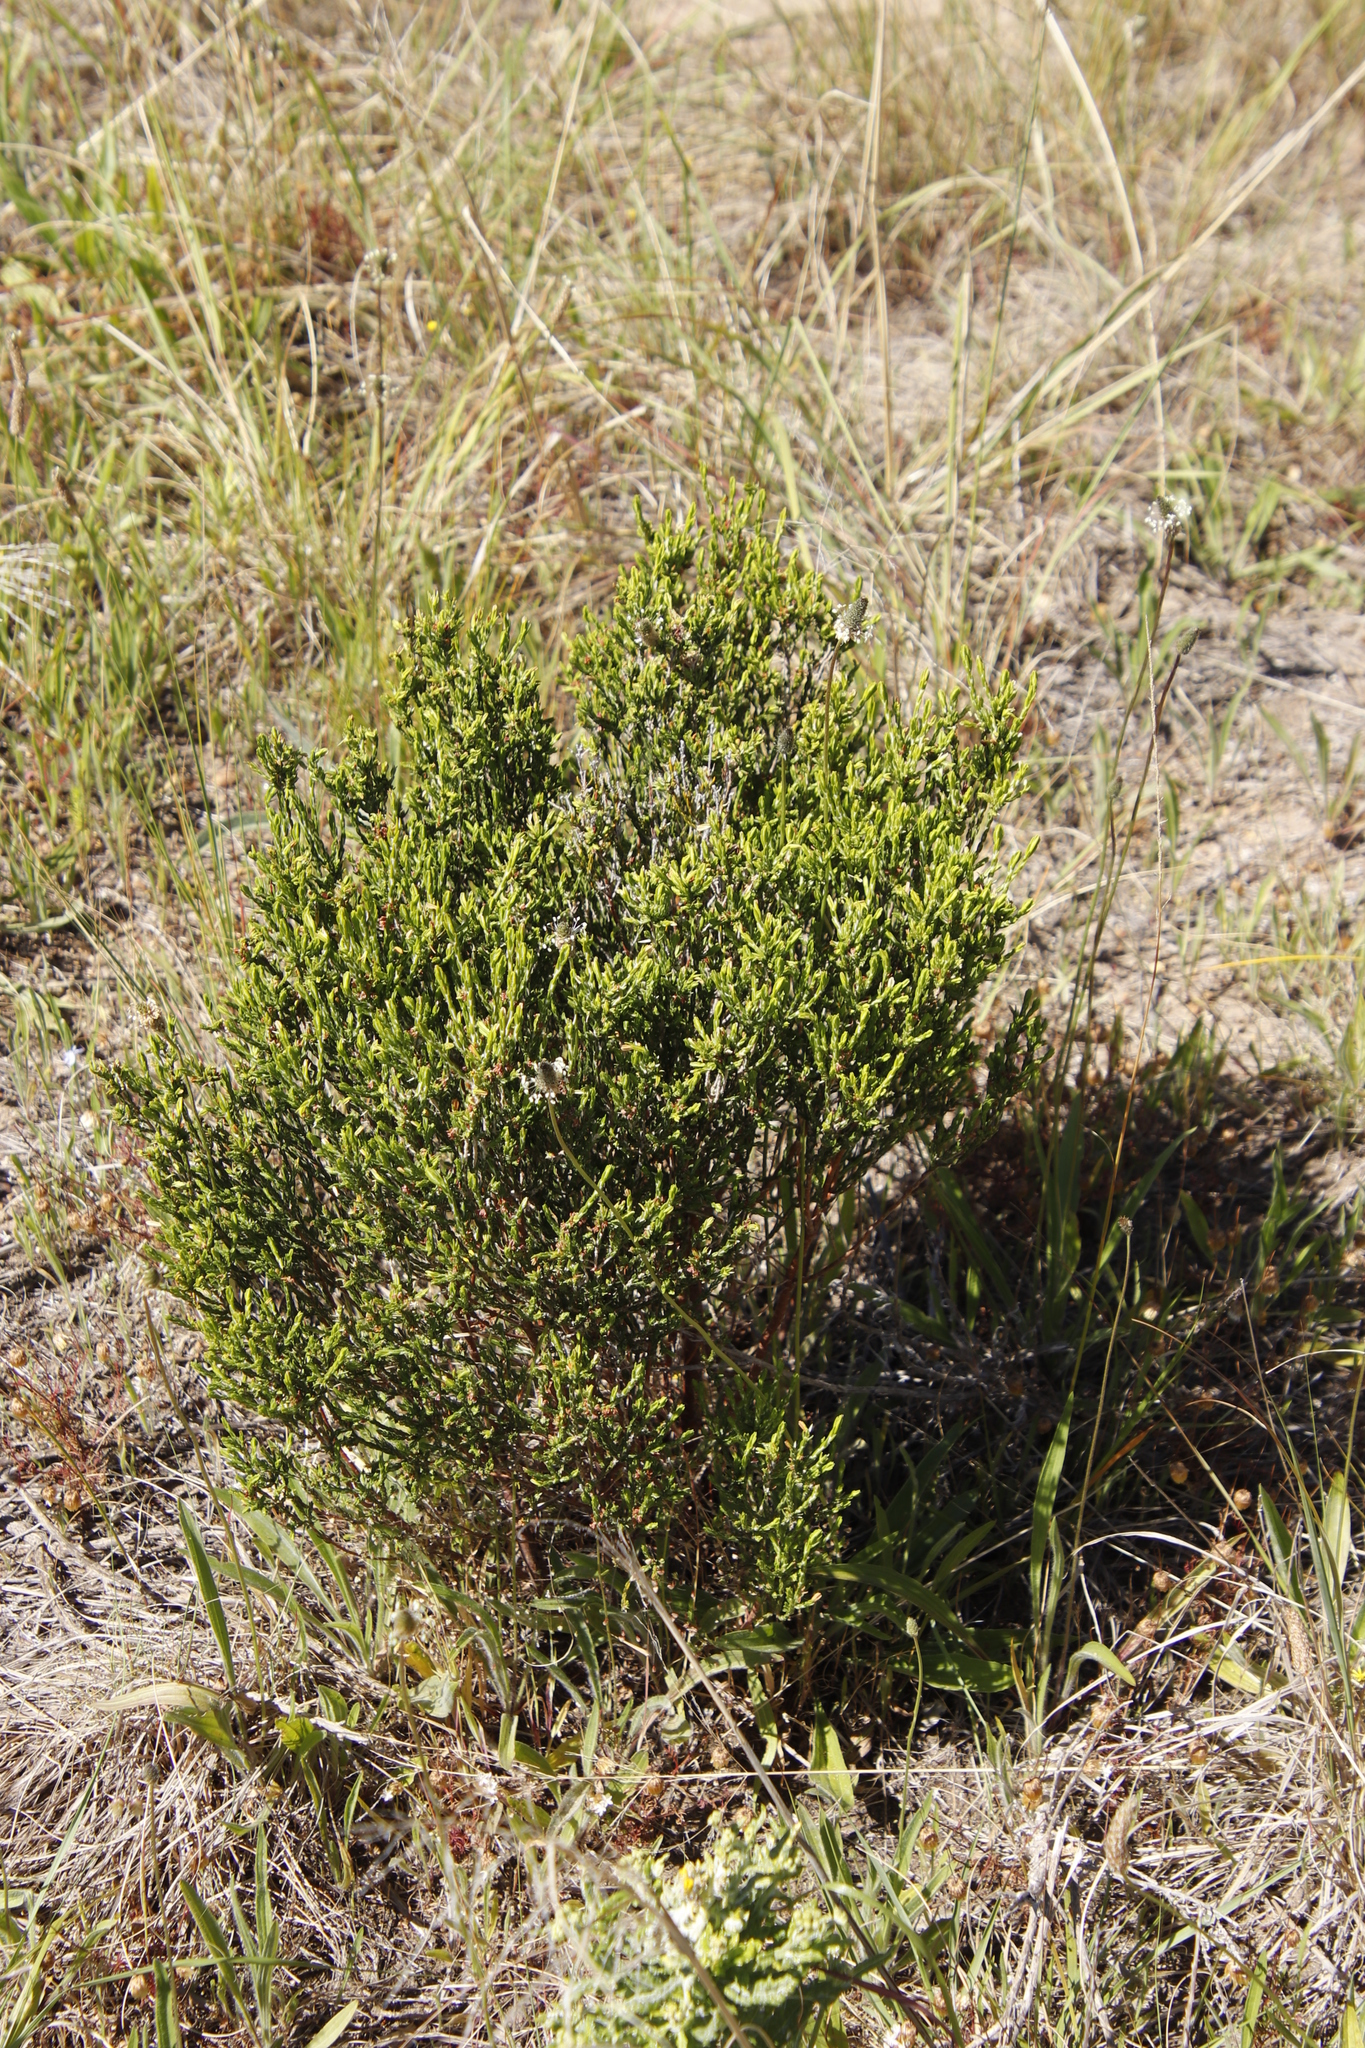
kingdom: Plantae
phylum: Tracheophyta
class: Magnoliopsida
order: Malvales
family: Thymelaeaceae
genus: Passerina
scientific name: Passerina corymbosa
